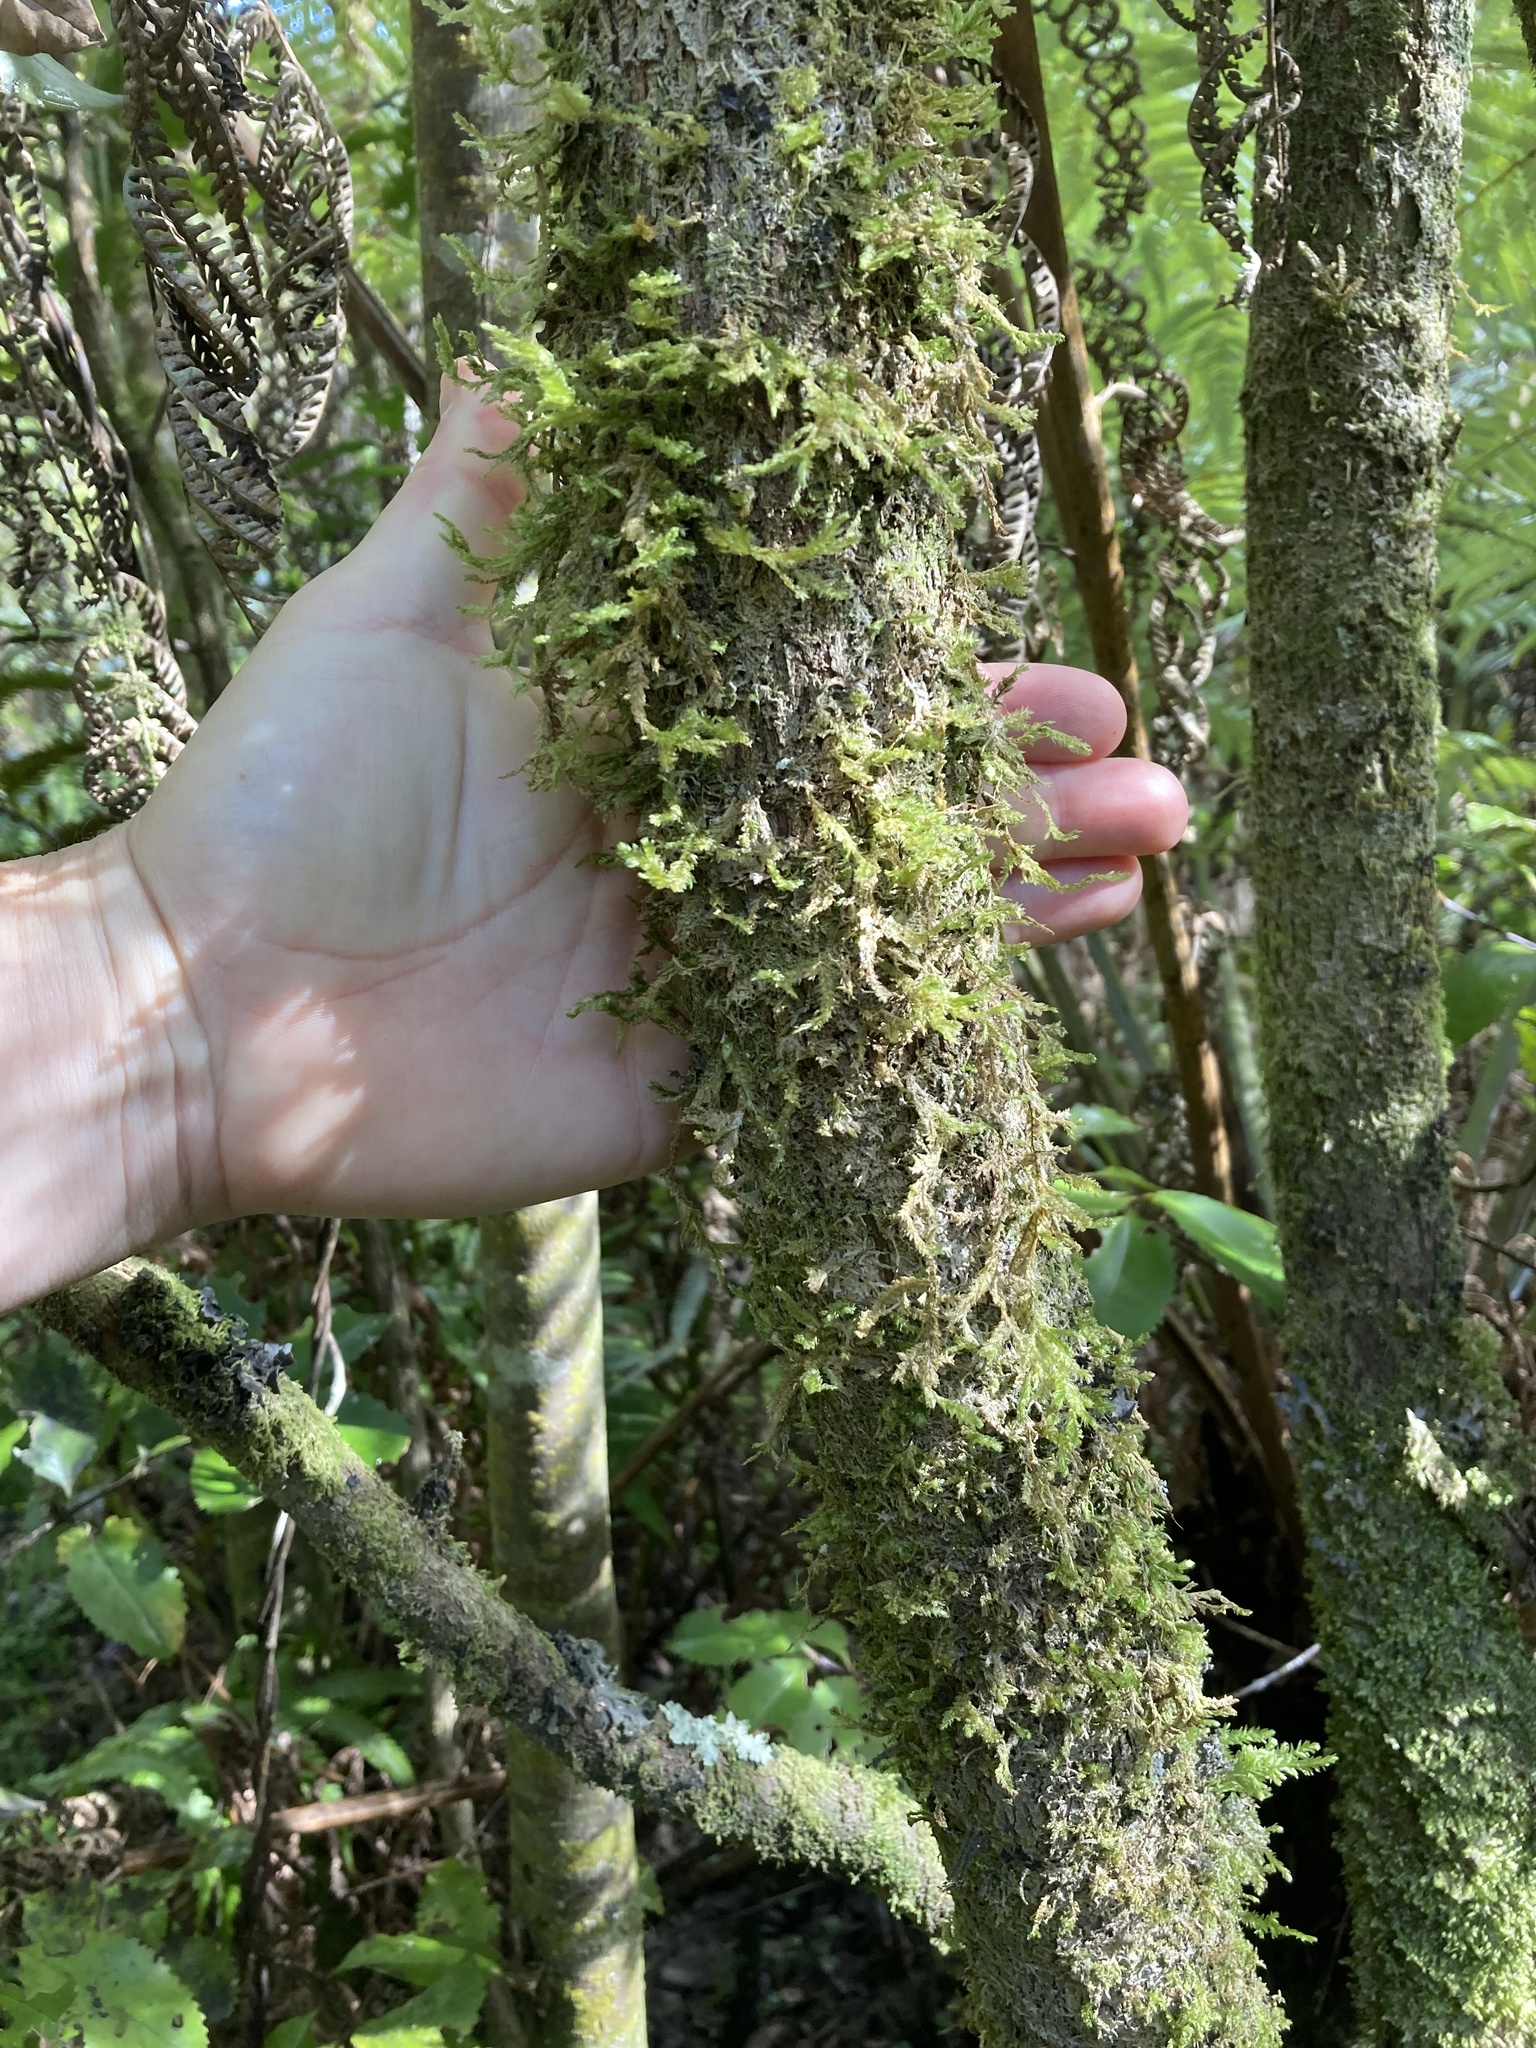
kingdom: Plantae
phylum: Tracheophyta
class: Magnoliopsida
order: Myrtales
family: Myrtaceae
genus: Lophomyrtus
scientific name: Lophomyrtus bullata
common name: Rama rama
